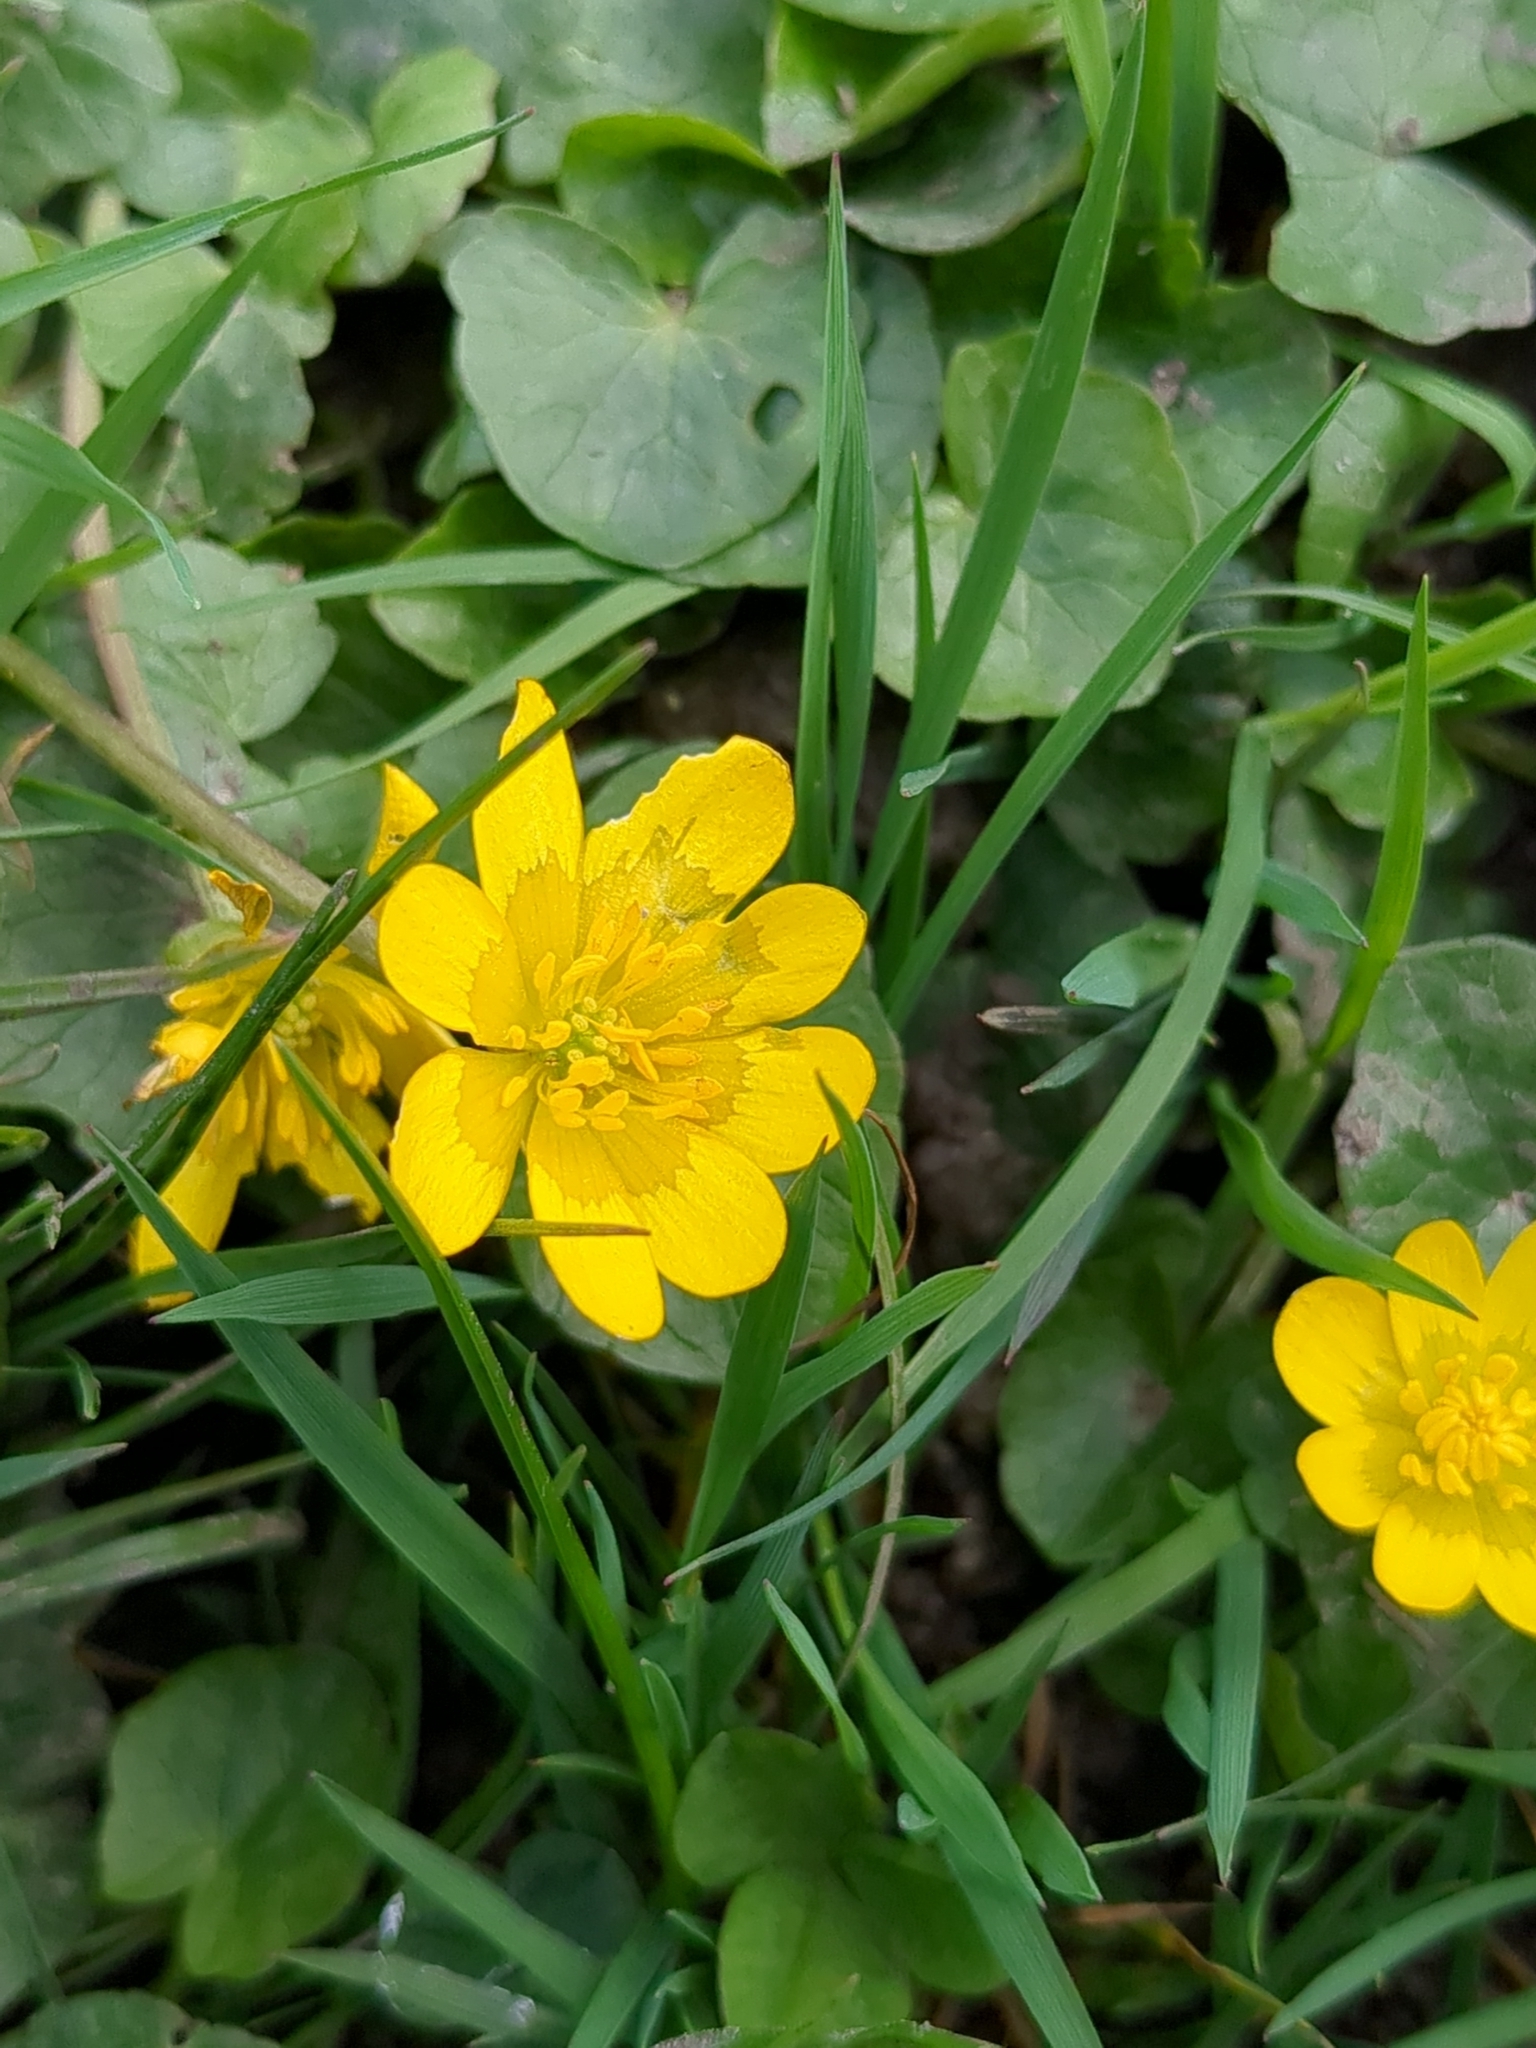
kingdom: Plantae
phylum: Tracheophyta
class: Magnoliopsida
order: Ranunculales
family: Ranunculaceae
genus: Ficaria
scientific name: Ficaria verna
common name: Lesser celandine
